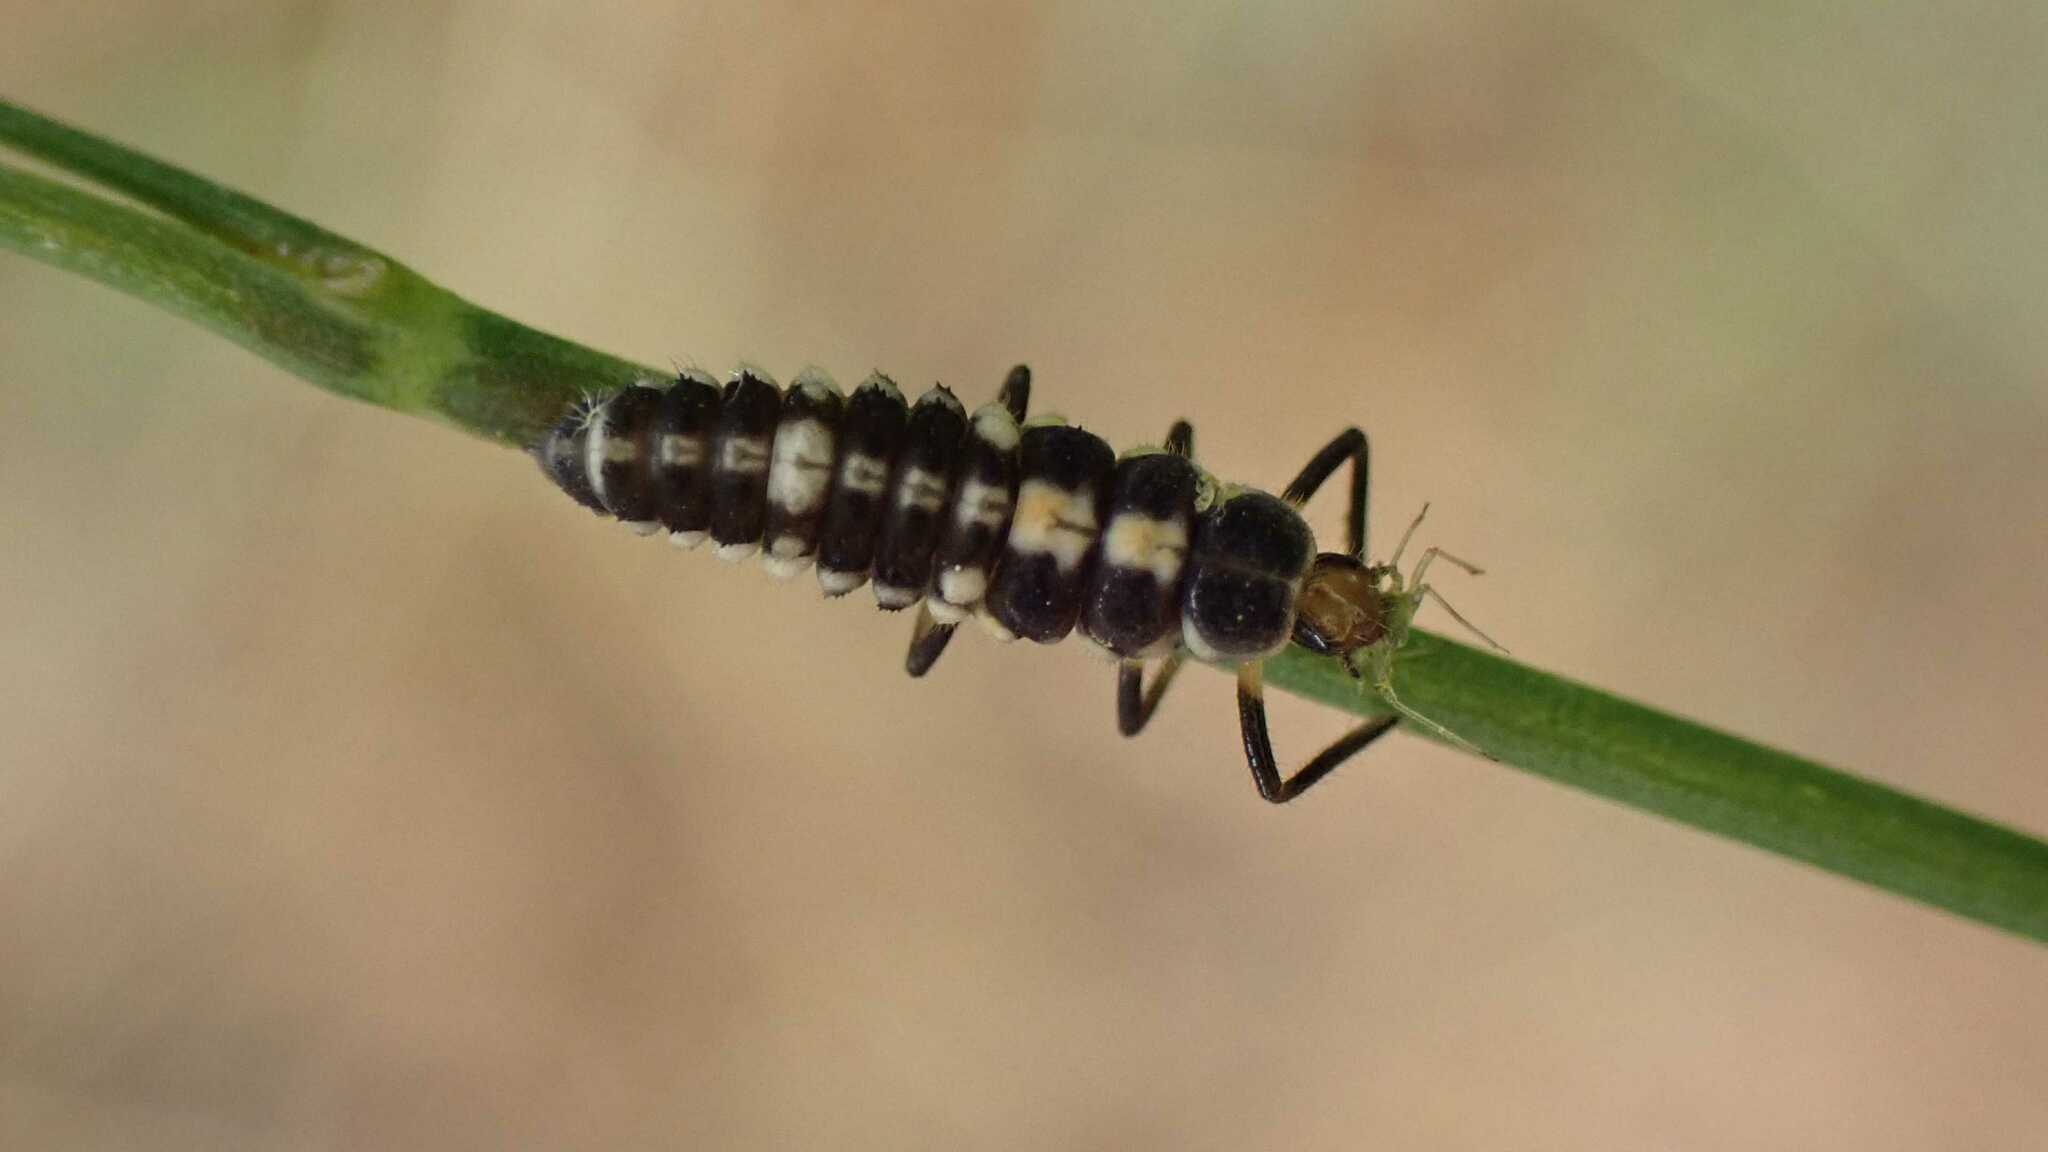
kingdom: Animalia
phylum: Arthropoda
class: Insecta
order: Coleoptera
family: Coccinellidae
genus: Propylaea
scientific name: Propylaea quatuordecimpunctata
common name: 14-spotted ladybird beetle
